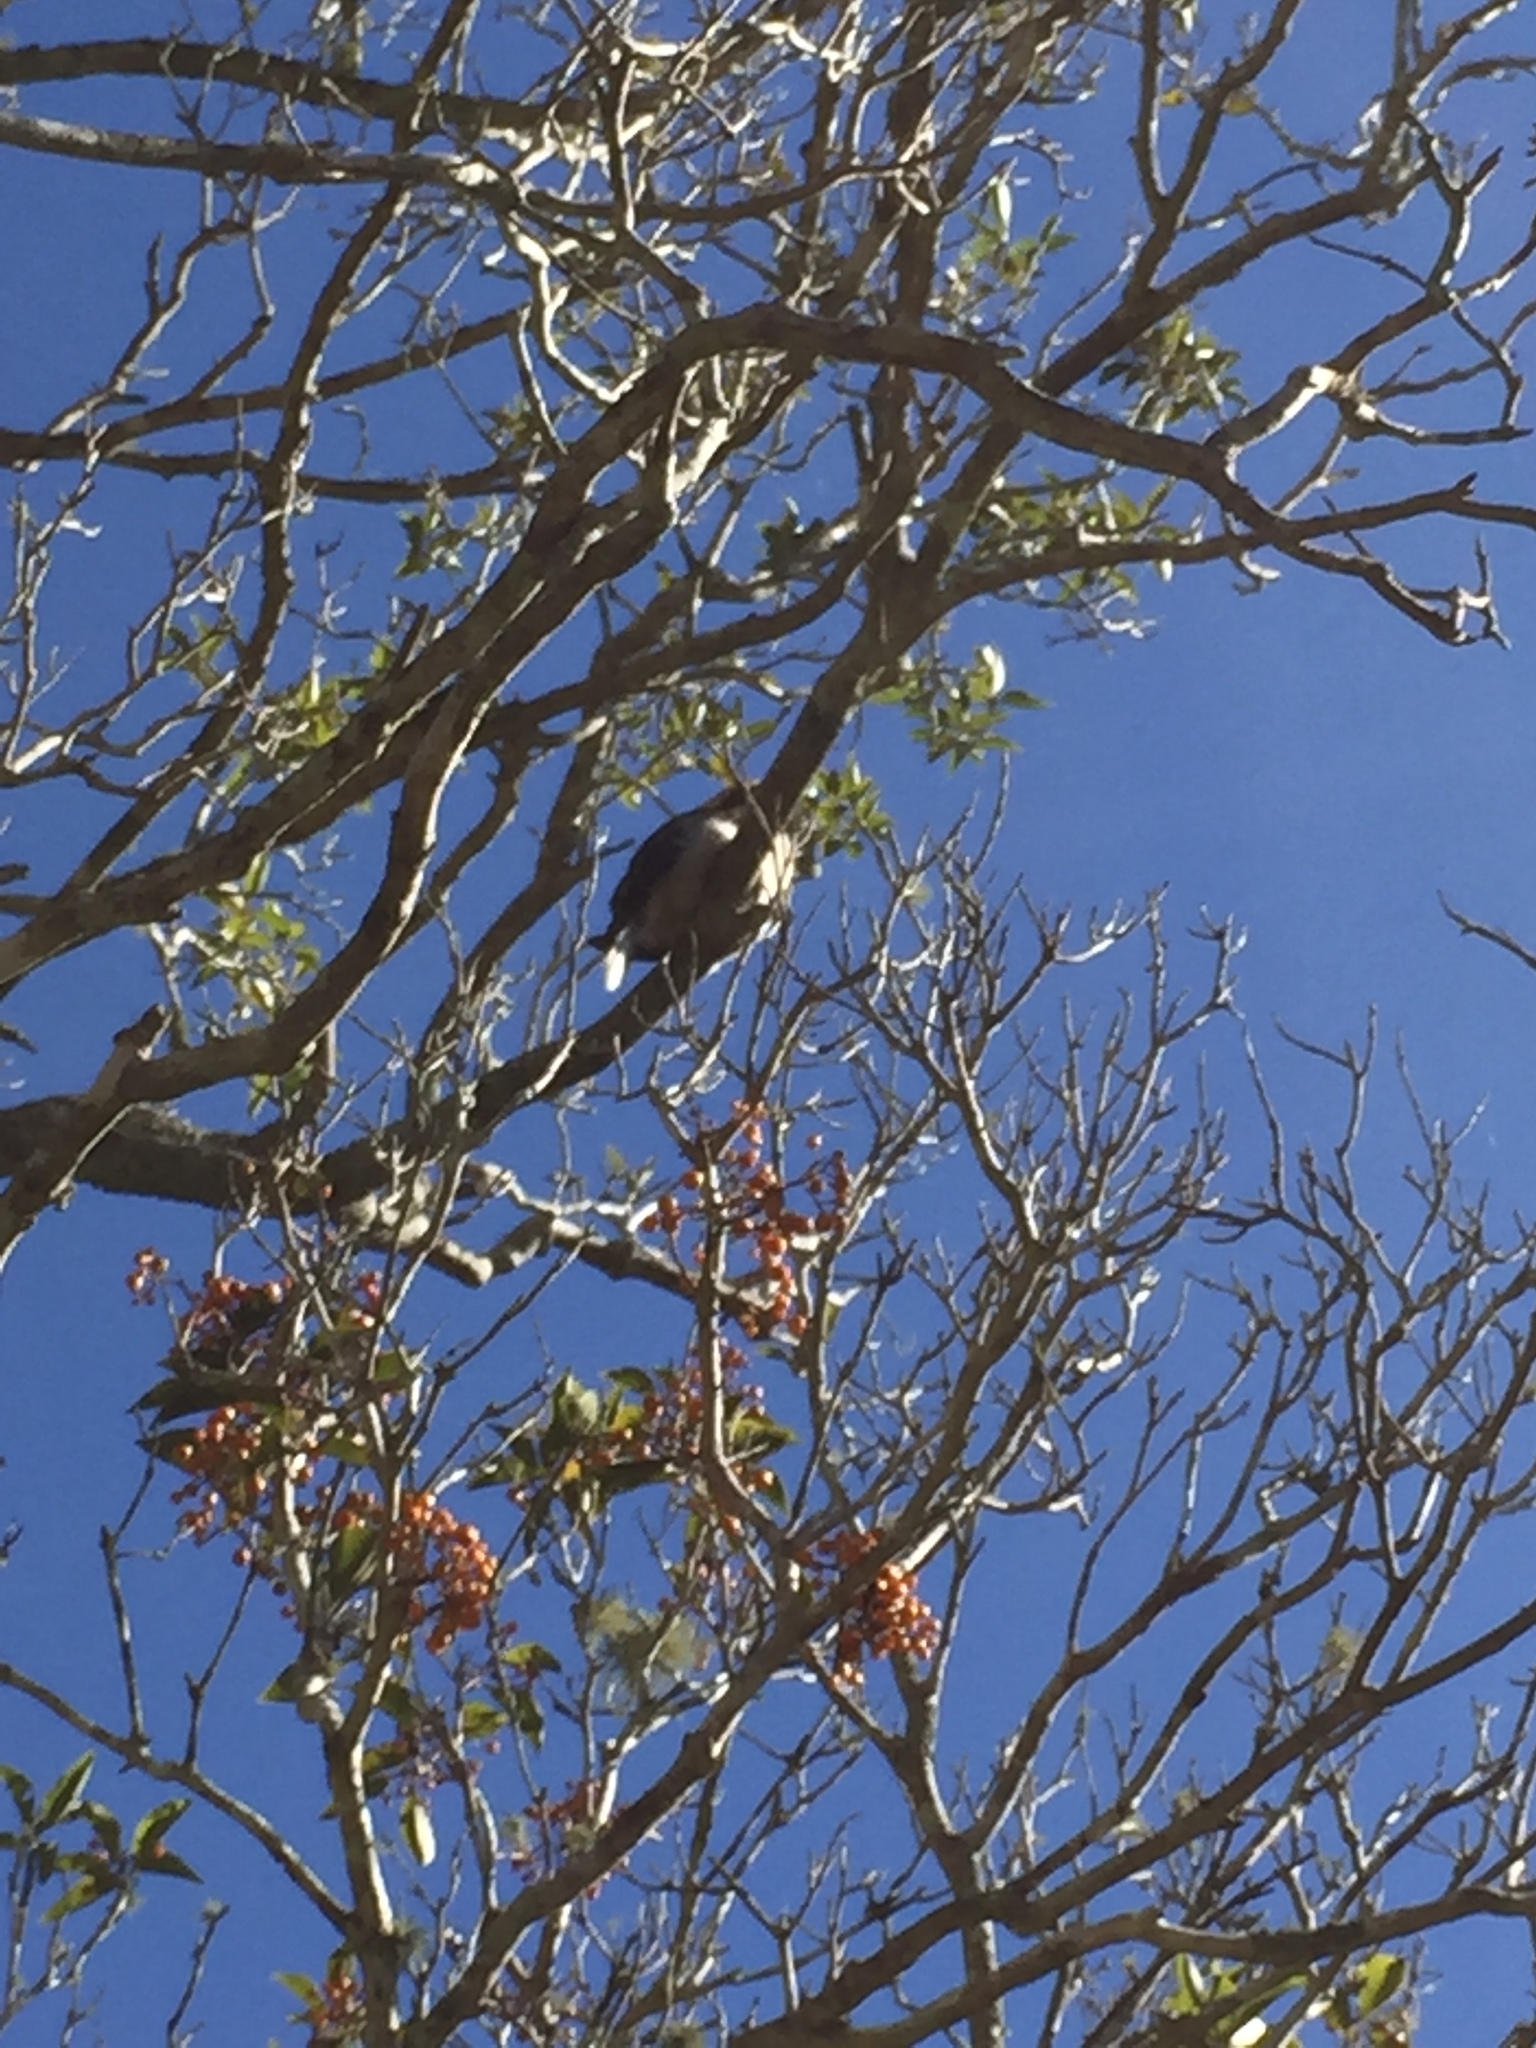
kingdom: Animalia
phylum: Chordata
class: Aves
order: Coraciiformes
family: Alcedinidae
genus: Dacelo
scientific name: Dacelo novaeguineae
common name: Laughing kookaburra
